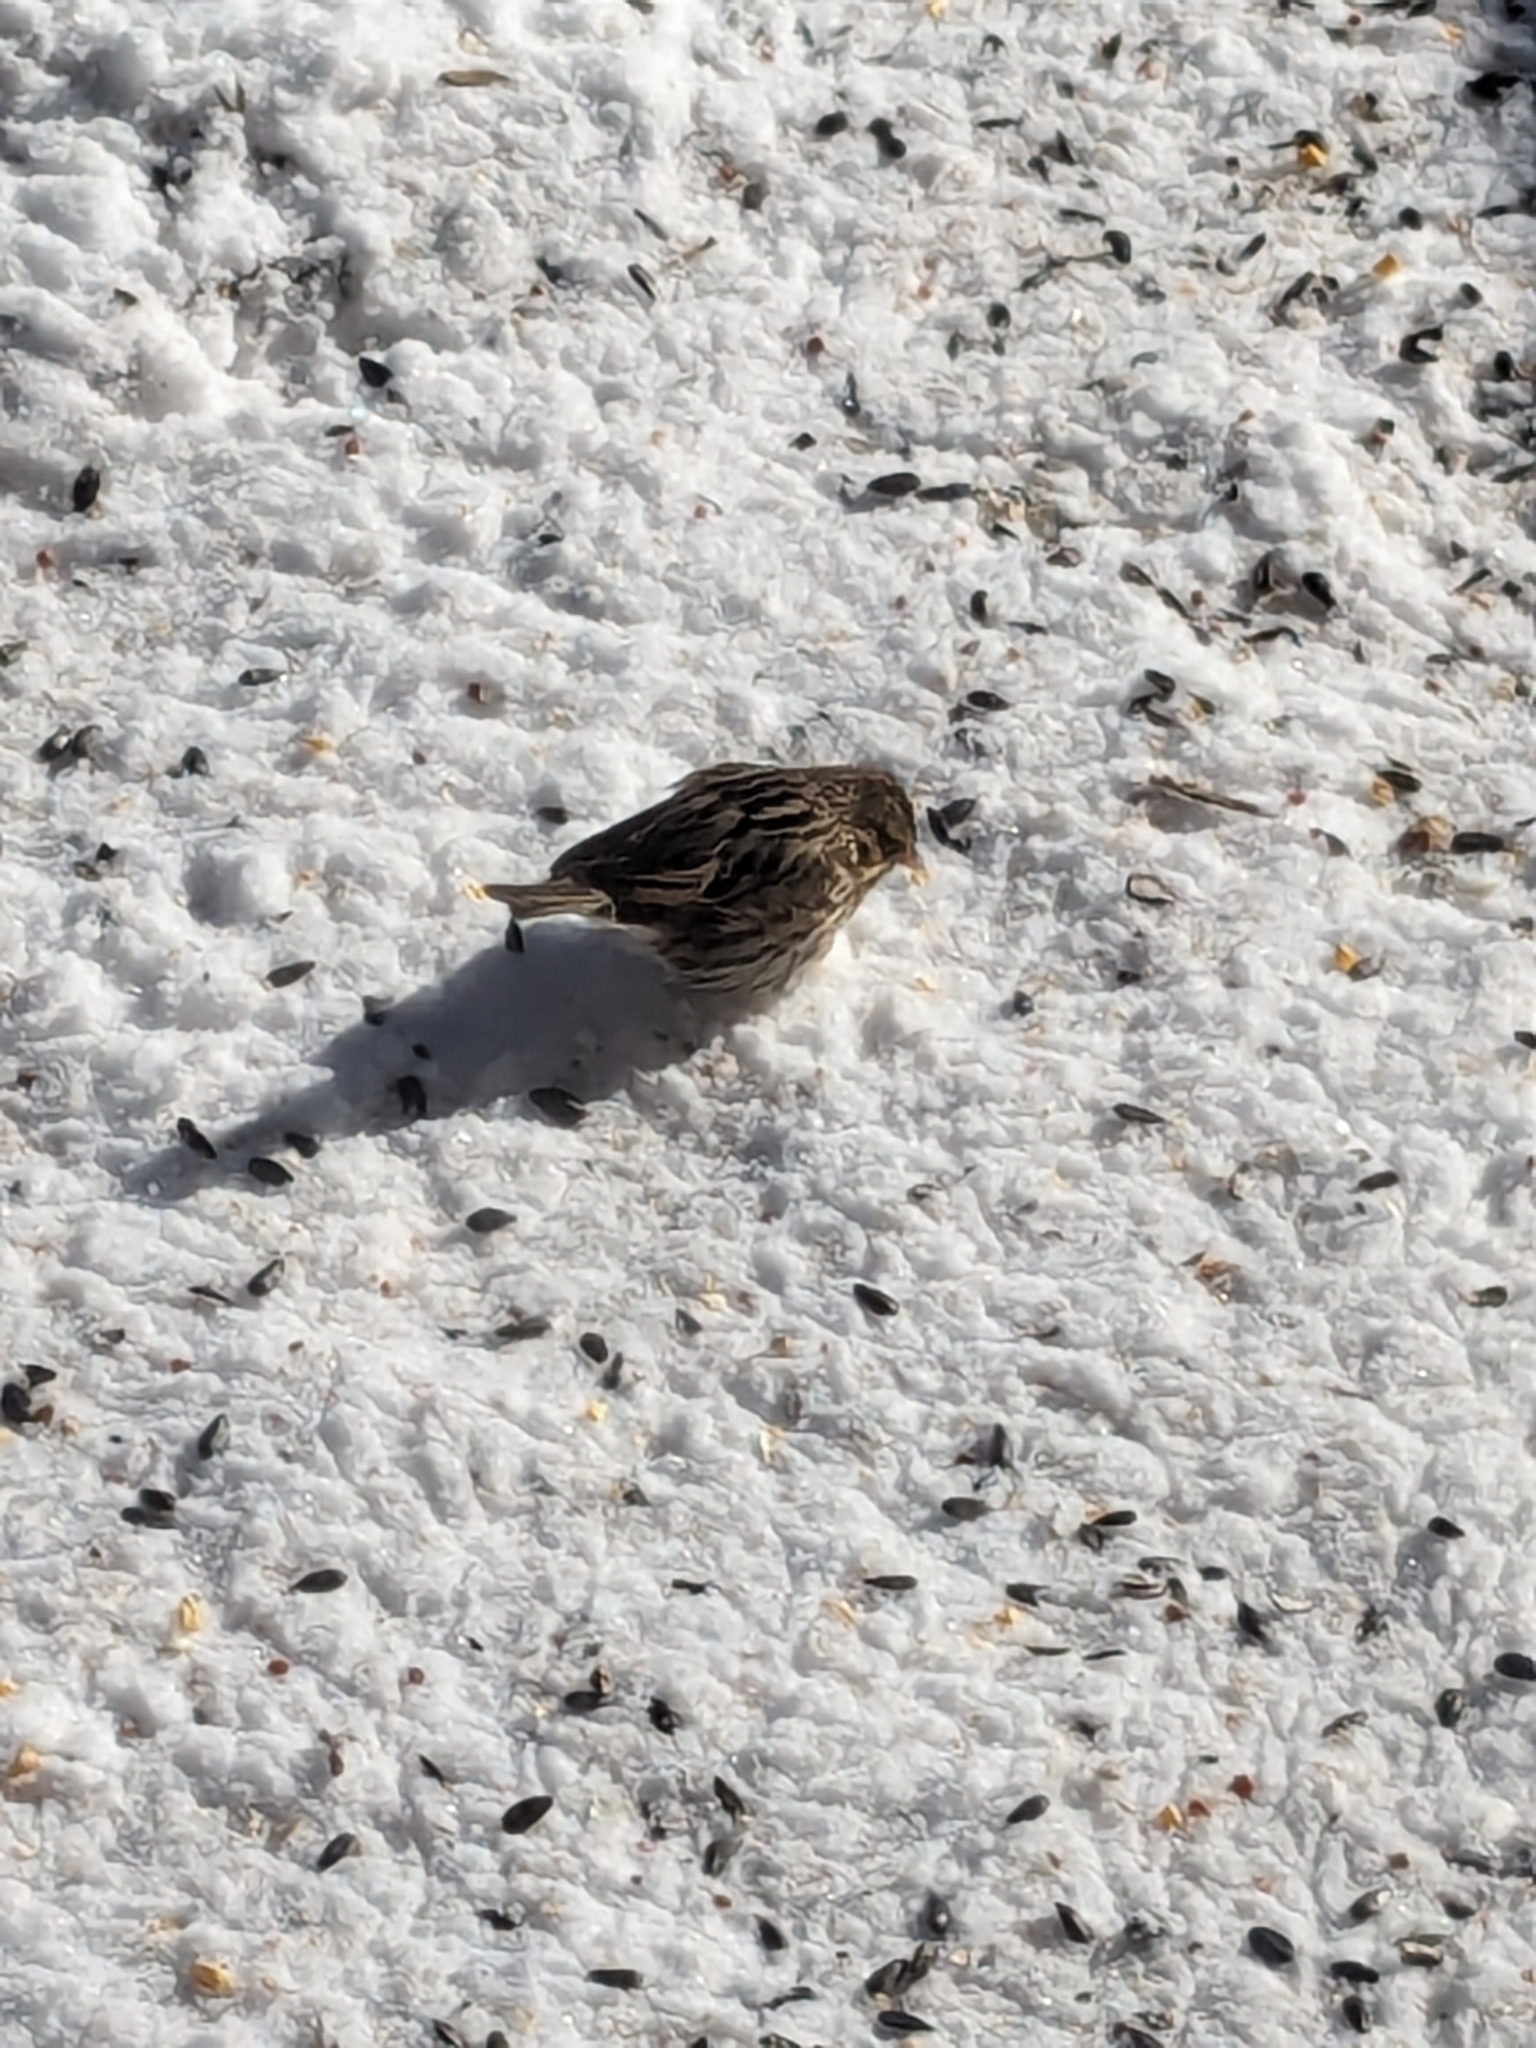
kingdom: Animalia
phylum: Chordata
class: Aves
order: Passeriformes
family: Passerellidae
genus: Passerculus
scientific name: Passerculus sandwichensis
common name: Savannah sparrow
